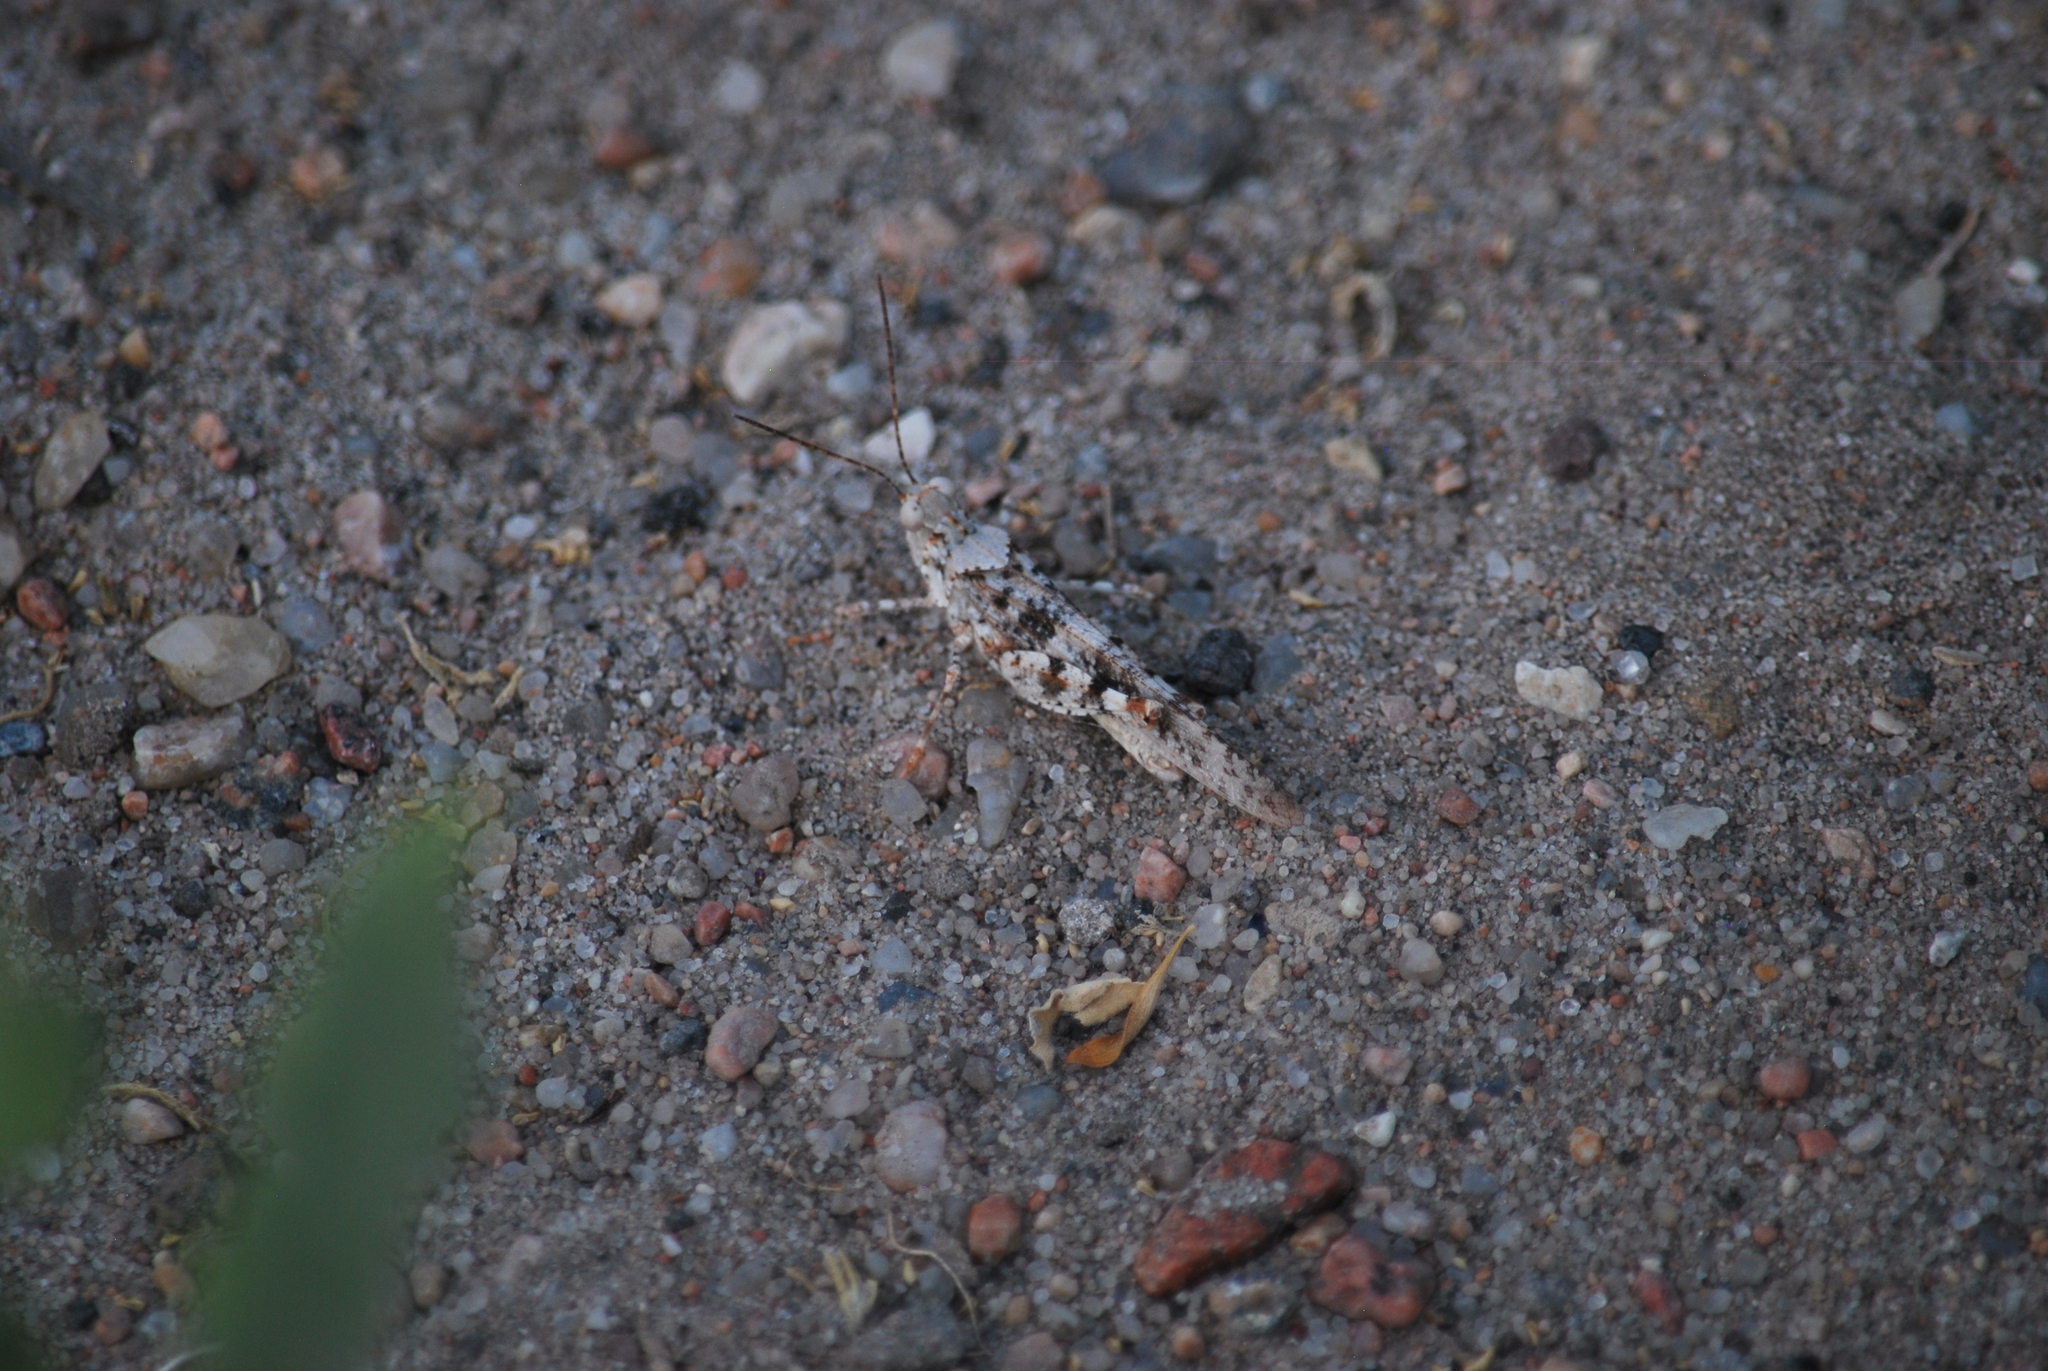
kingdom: Animalia
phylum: Arthropoda
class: Insecta
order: Orthoptera
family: Acrididae
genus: Trimerotropis
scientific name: Trimerotropis maritima
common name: Seaside locust
